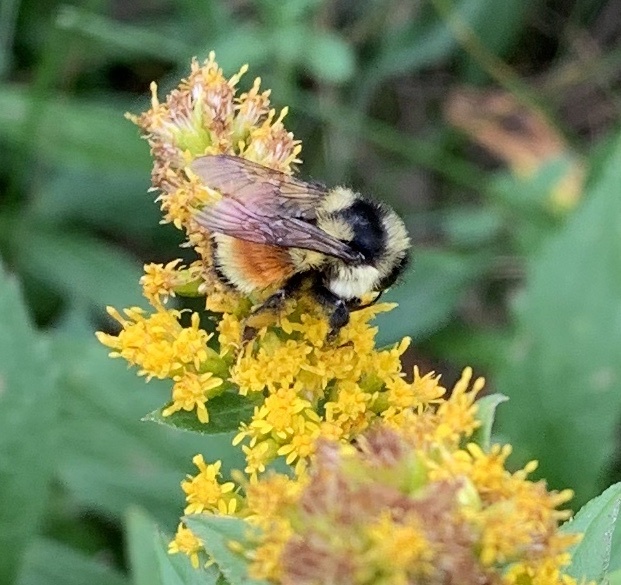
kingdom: Animalia
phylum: Arthropoda
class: Insecta
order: Hymenoptera
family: Apidae
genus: Bombus
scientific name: Bombus ternarius
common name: Tri-colored bumble bee
